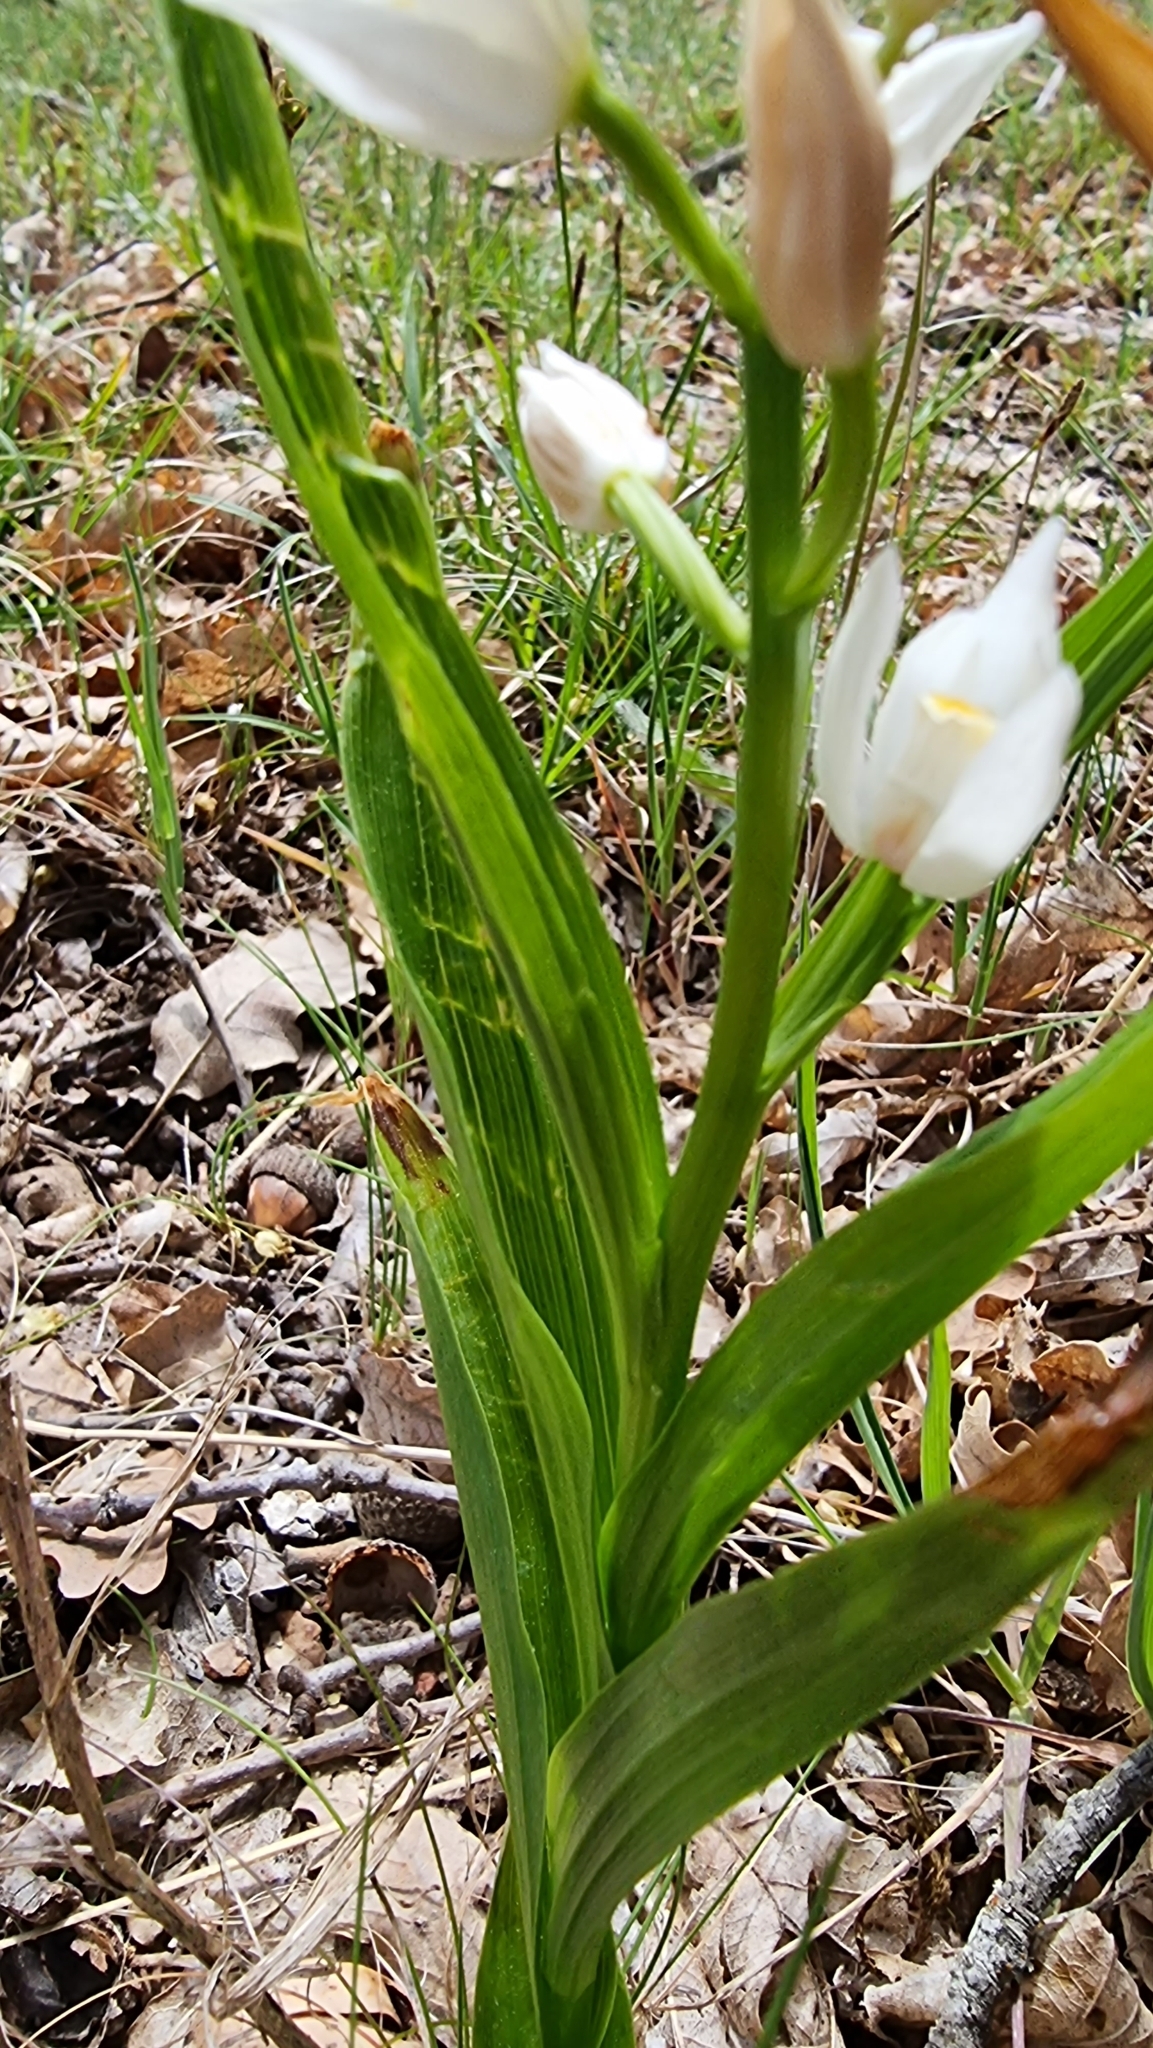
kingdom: Plantae
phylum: Tracheophyta
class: Liliopsida
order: Asparagales
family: Orchidaceae
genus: Cephalanthera
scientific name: Cephalanthera longifolia
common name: Narrow-leaved helleborine
